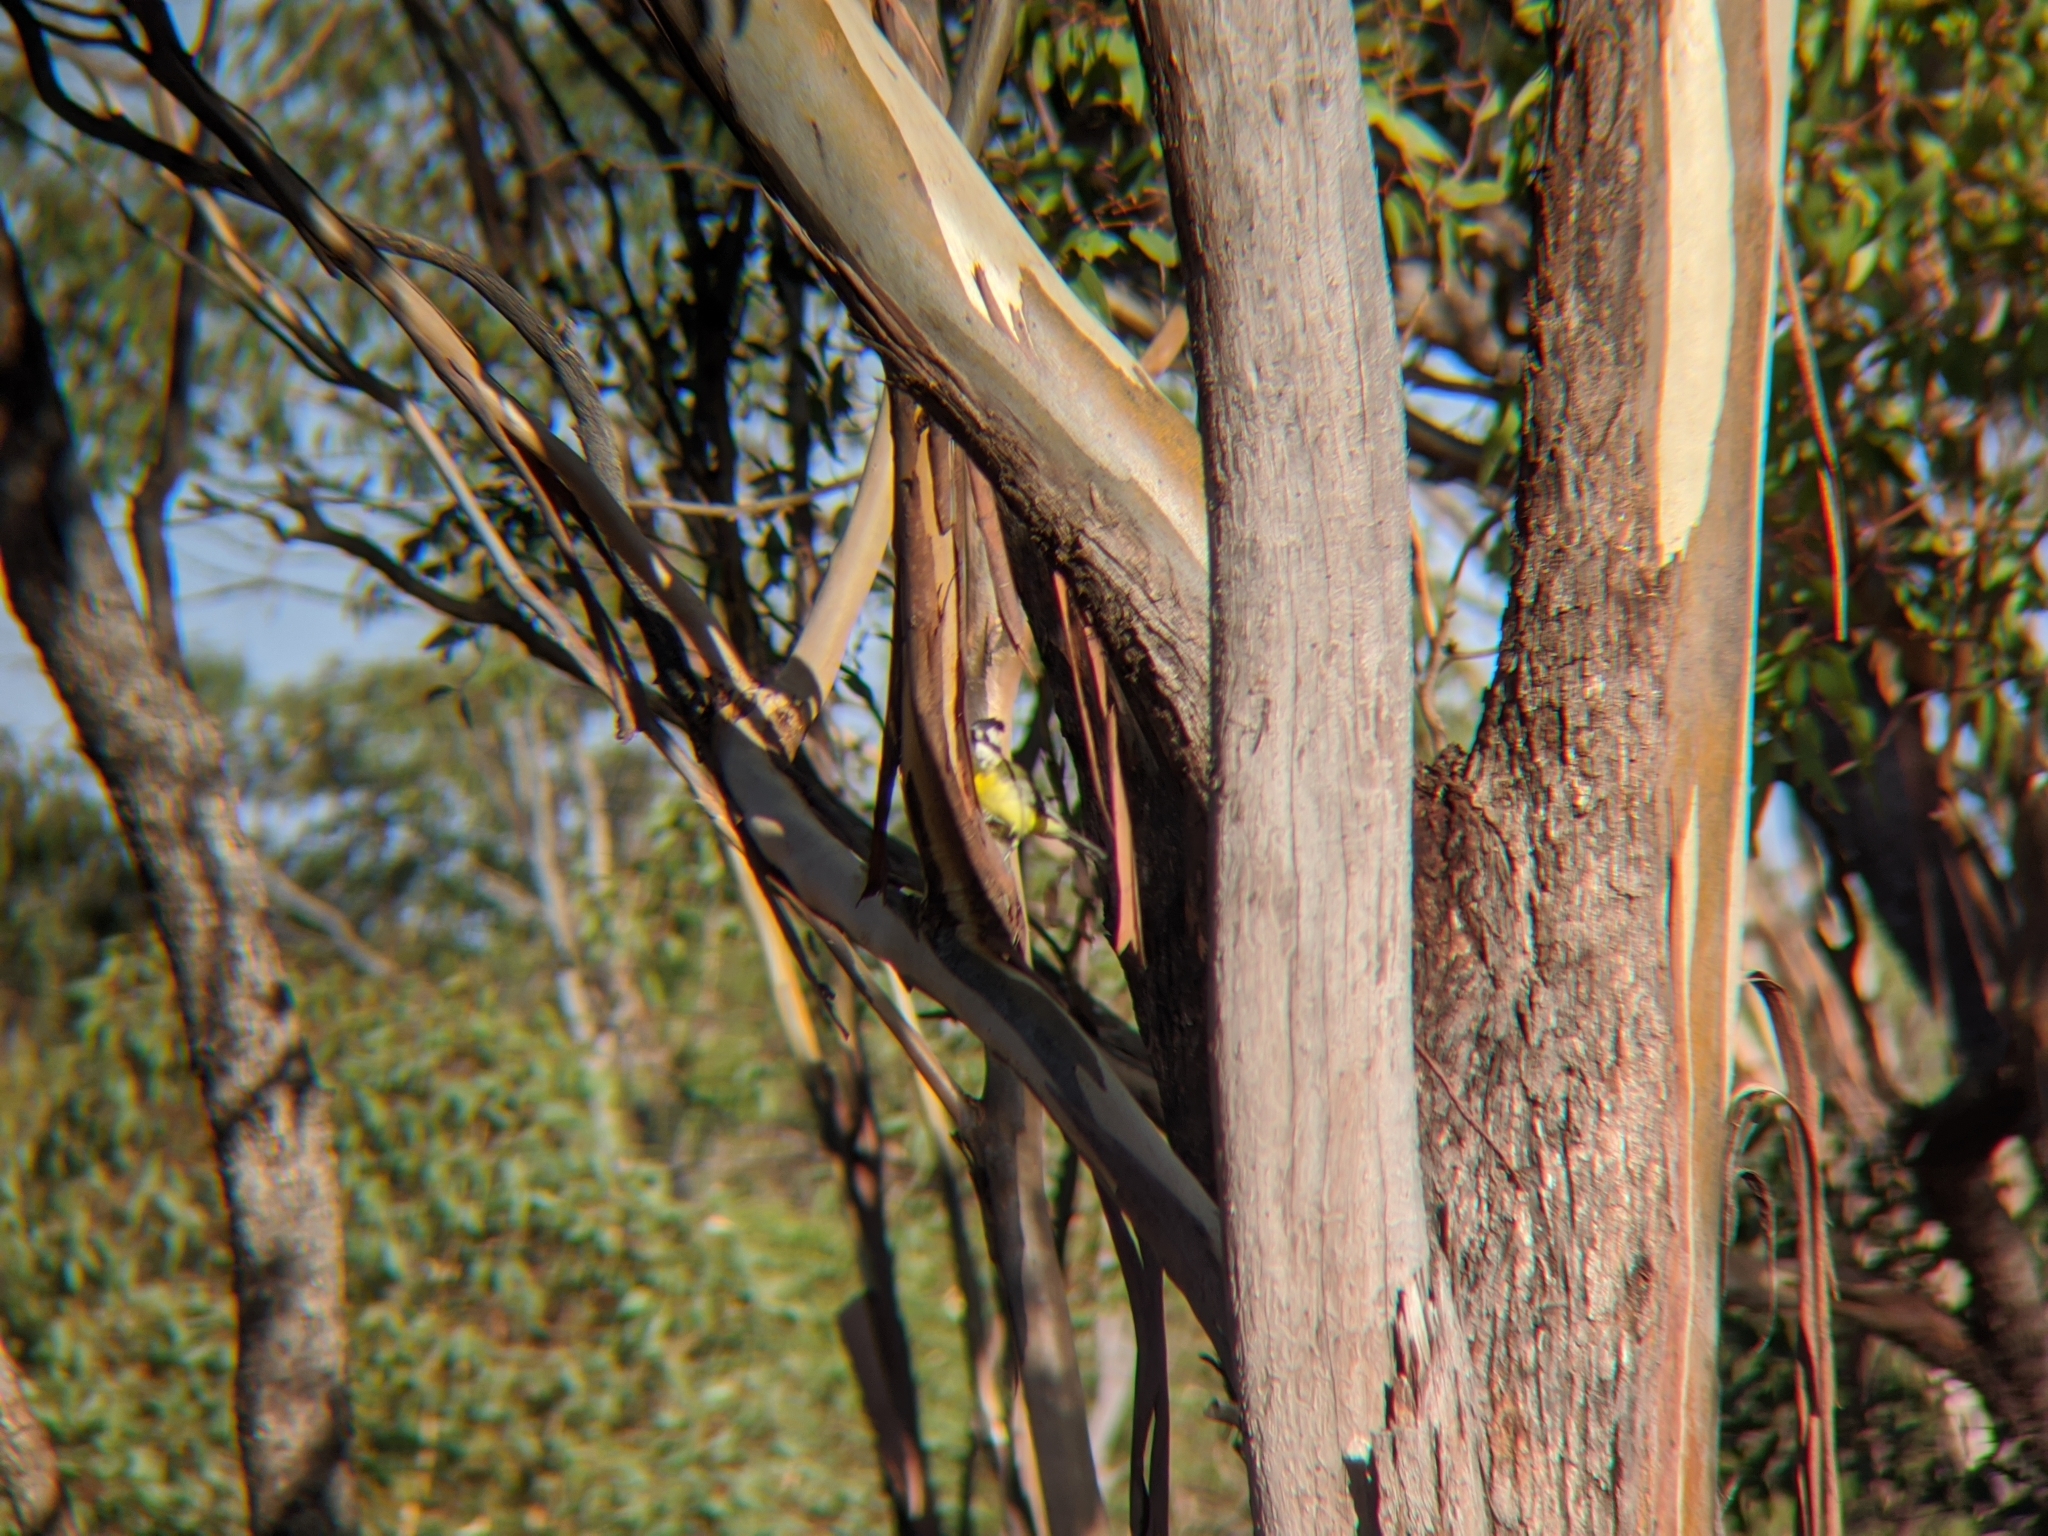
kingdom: Animalia
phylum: Chordata
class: Aves
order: Passeriformes
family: Pachycephalidae
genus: Falcunculus
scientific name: Falcunculus frontatus
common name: Crested shriketit
